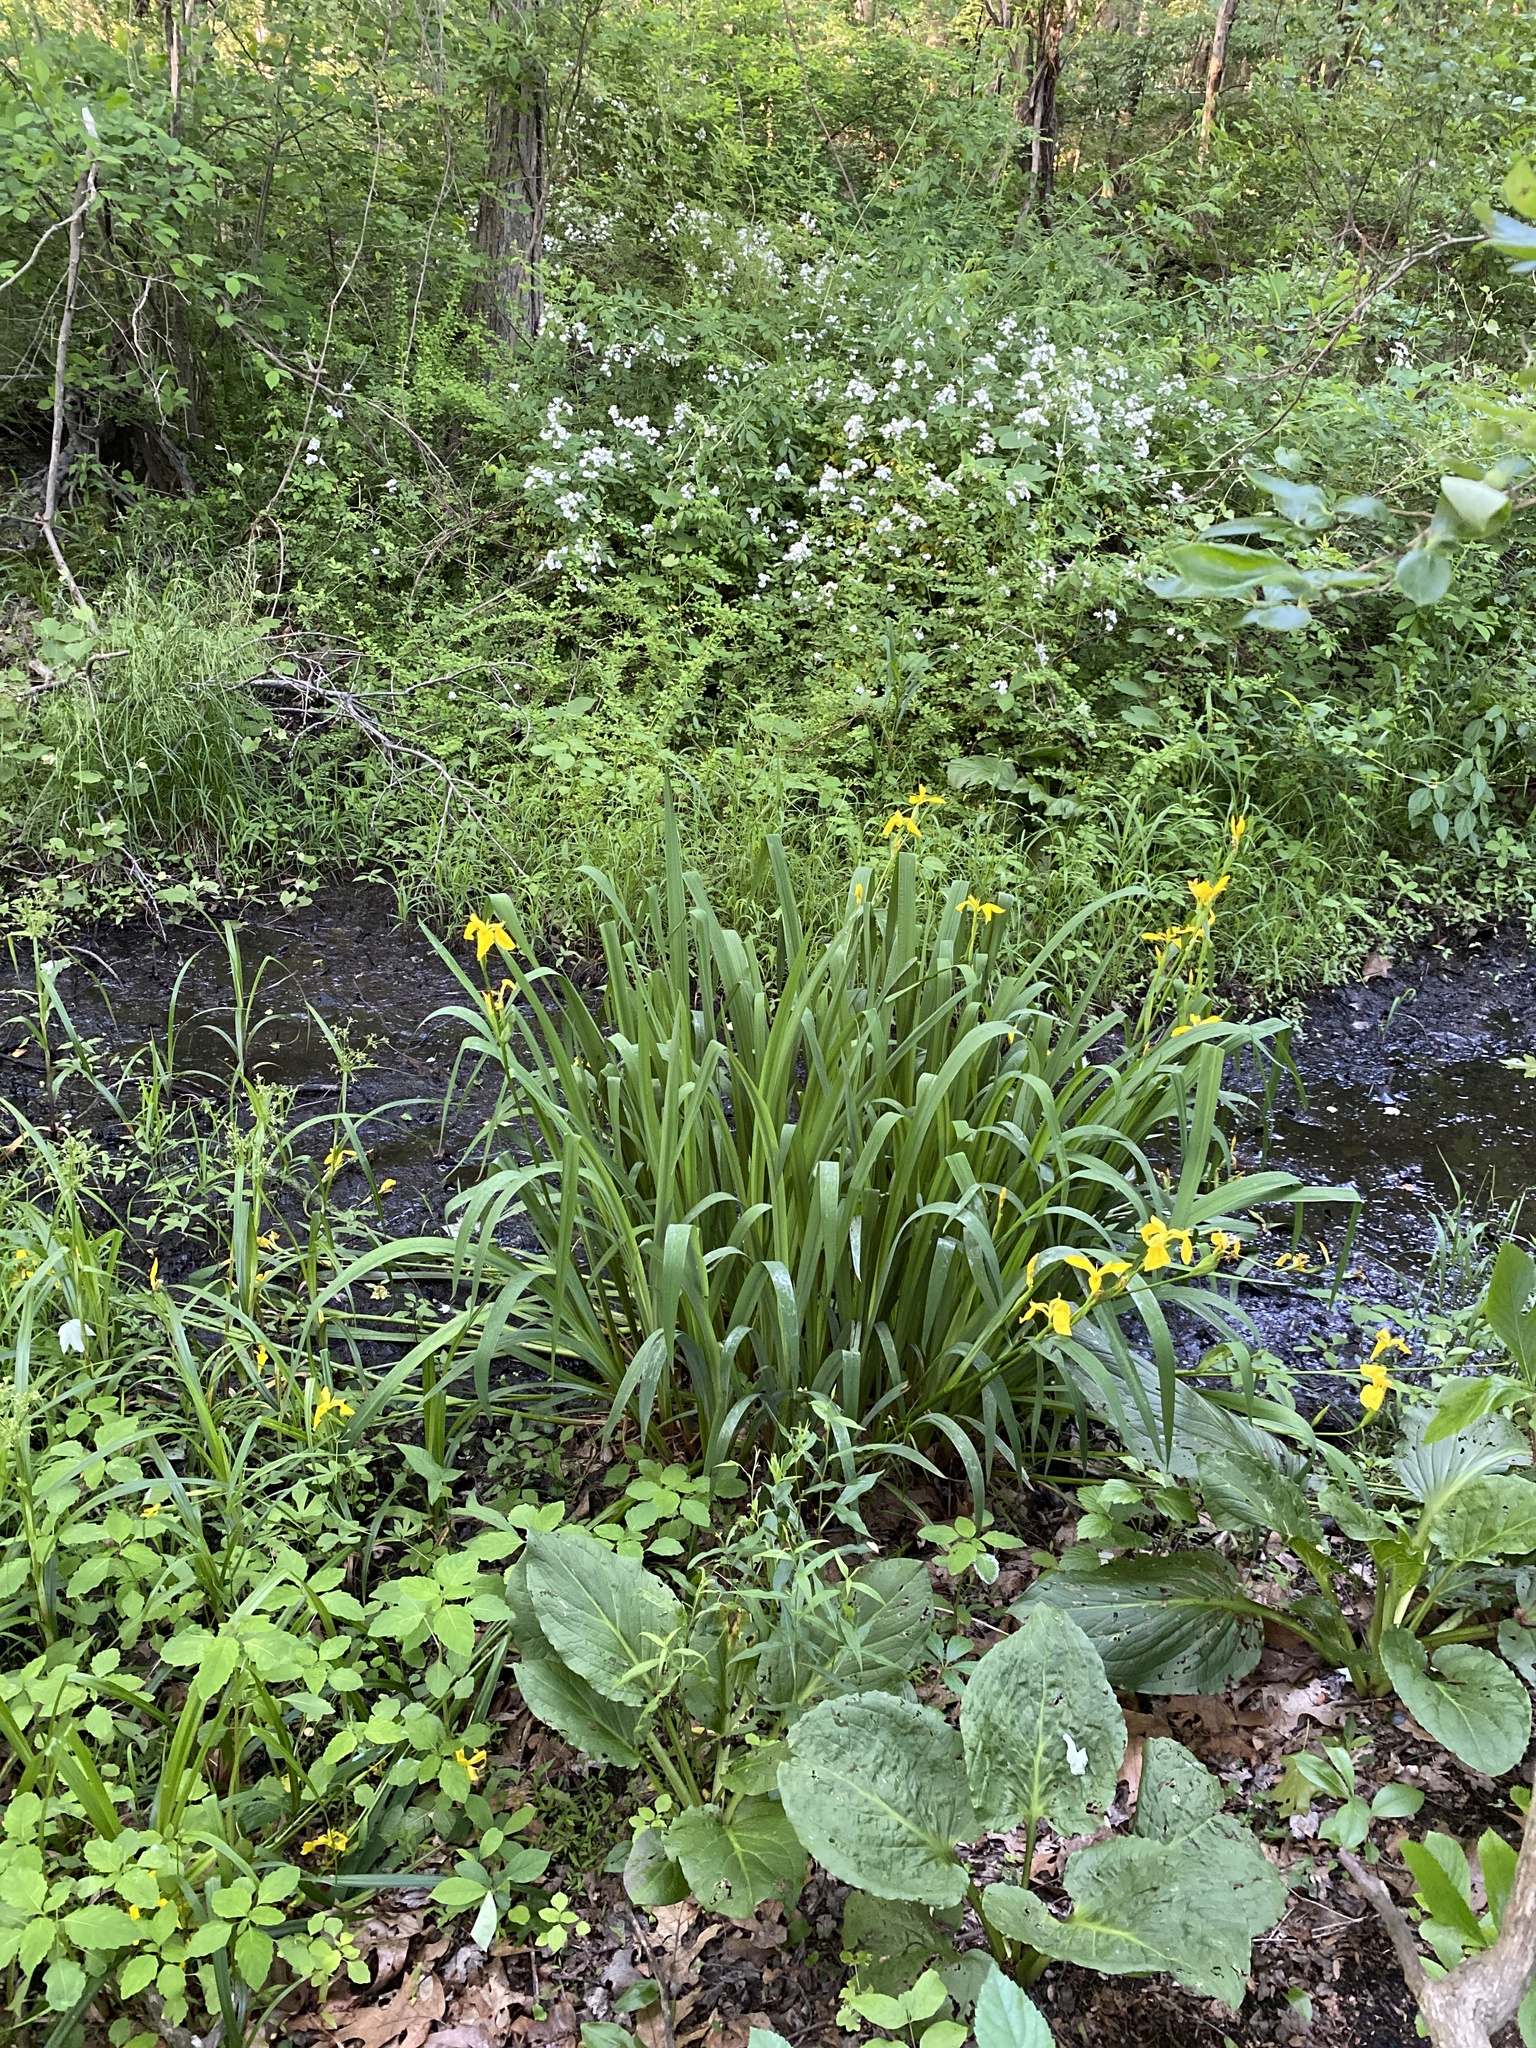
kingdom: Plantae
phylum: Tracheophyta
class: Liliopsida
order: Asparagales
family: Iridaceae
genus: Iris
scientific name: Iris pseudacorus
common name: Yellow flag
